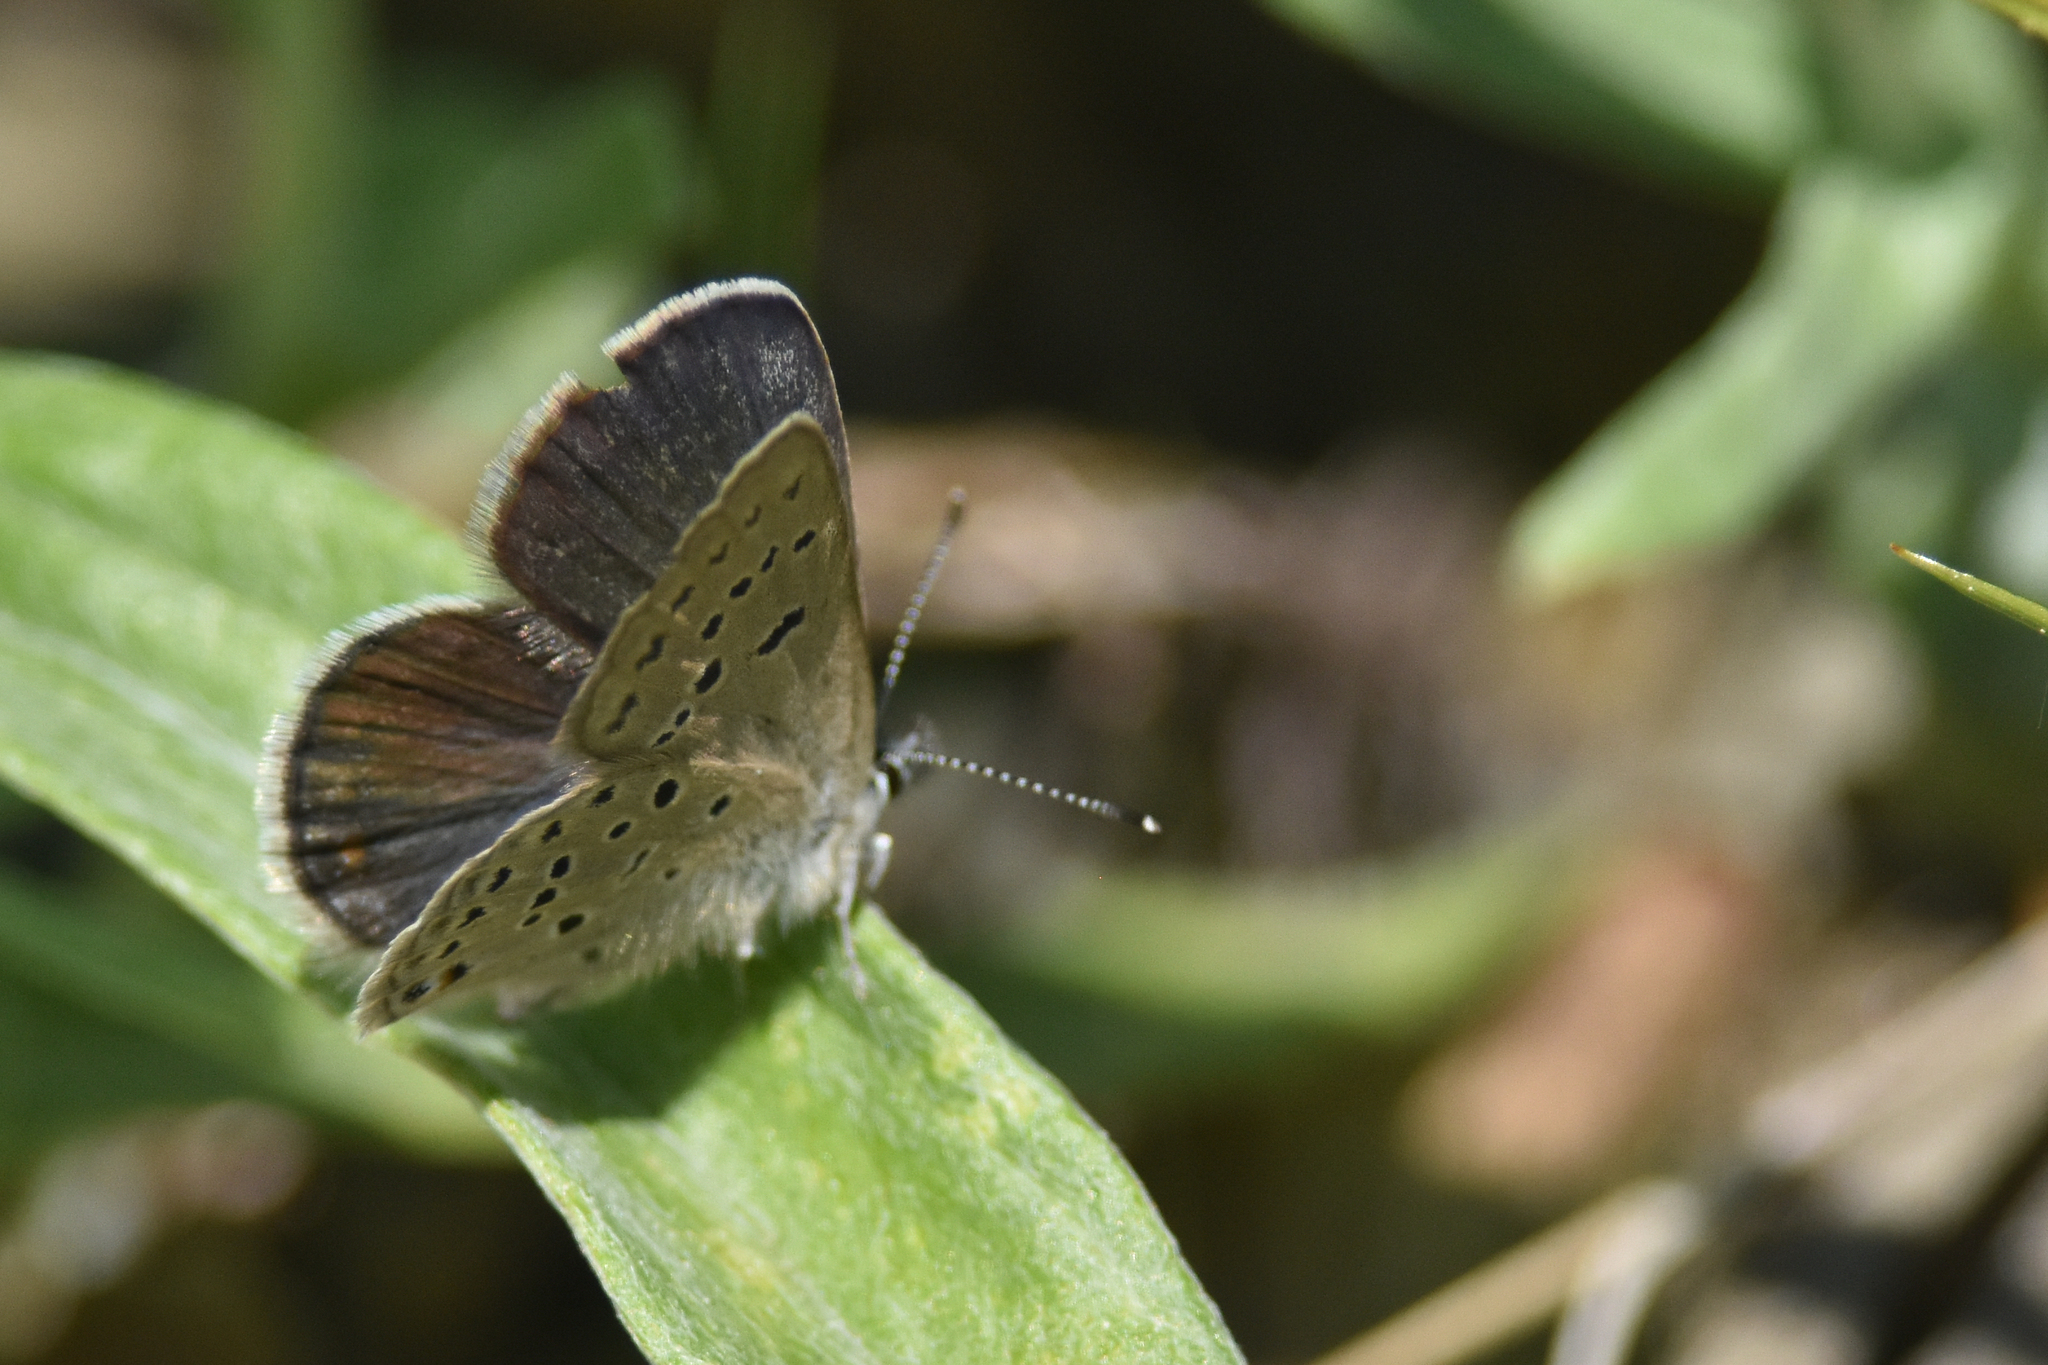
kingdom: Animalia
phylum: Arthropoda
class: Insecta
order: Lepidoptera
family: Lycaenidae
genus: Icaricia
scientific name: Icaricia saepiolus
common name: Greenish blue
